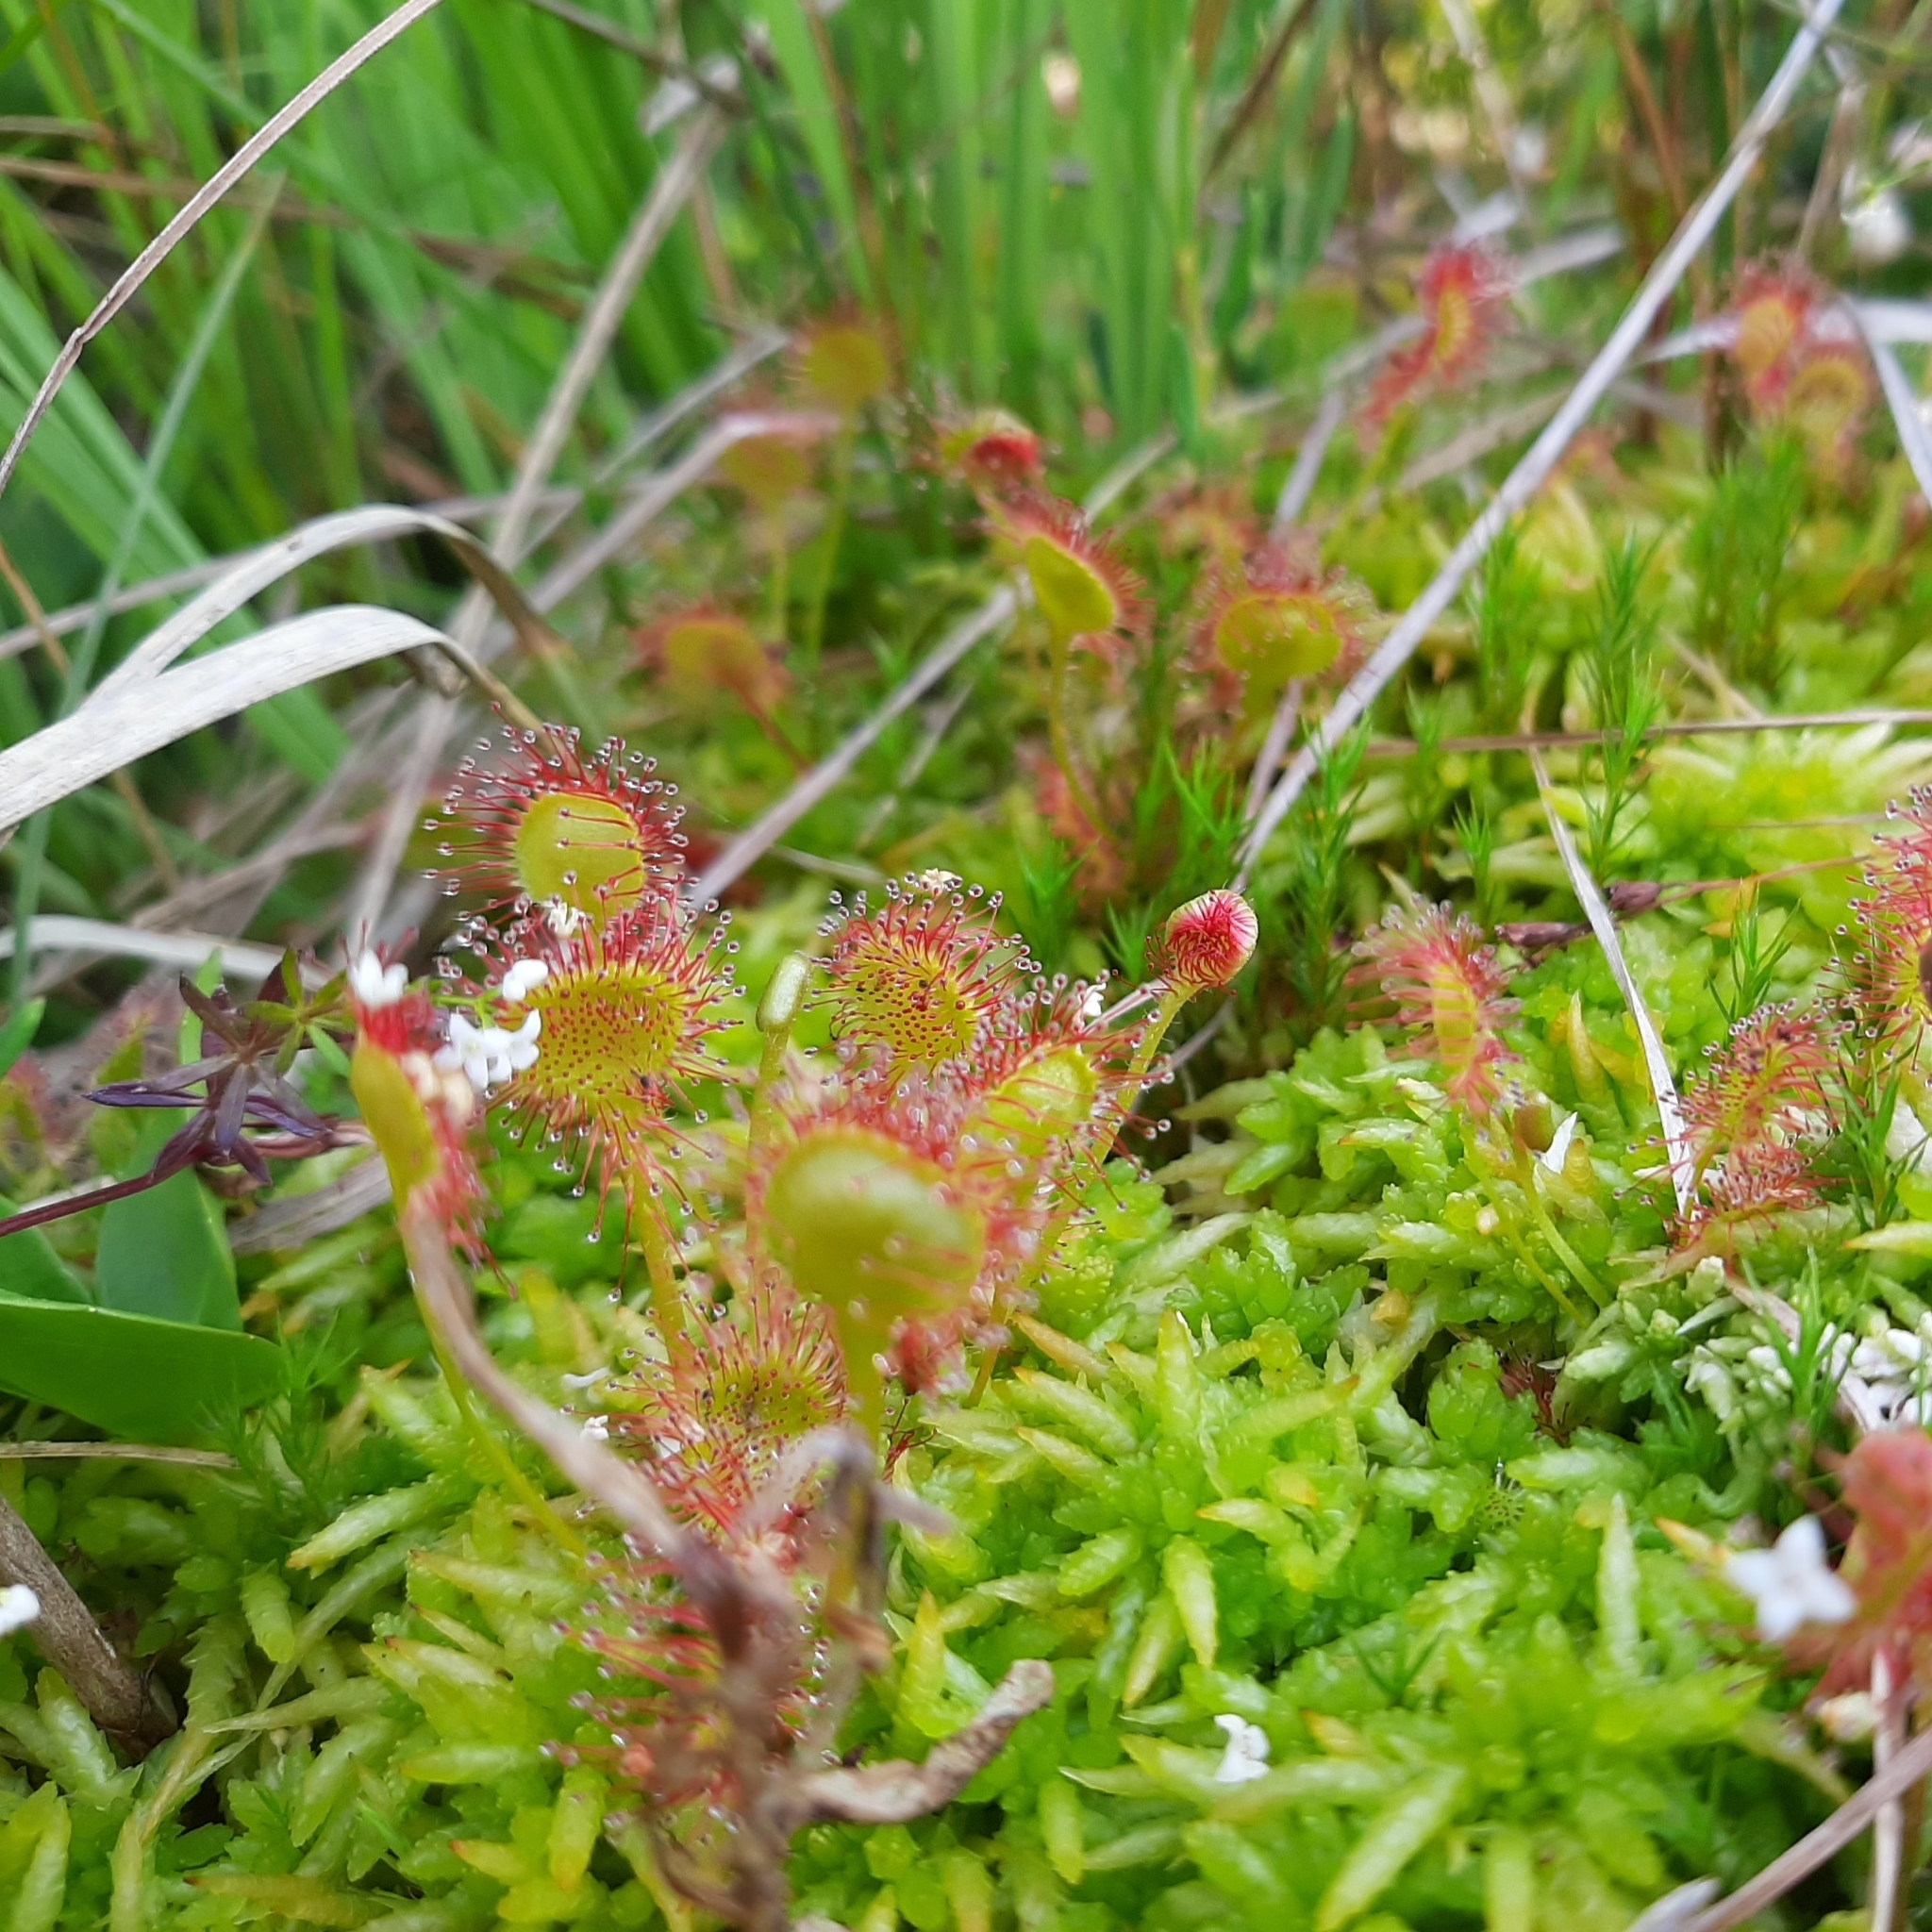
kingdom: Plantae
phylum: Tracheophyta
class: Magnoliopsida
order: Caryophyllales
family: Droseraceae
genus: Drosera
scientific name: Drosera rotundifolia
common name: Round-leaved sundew
